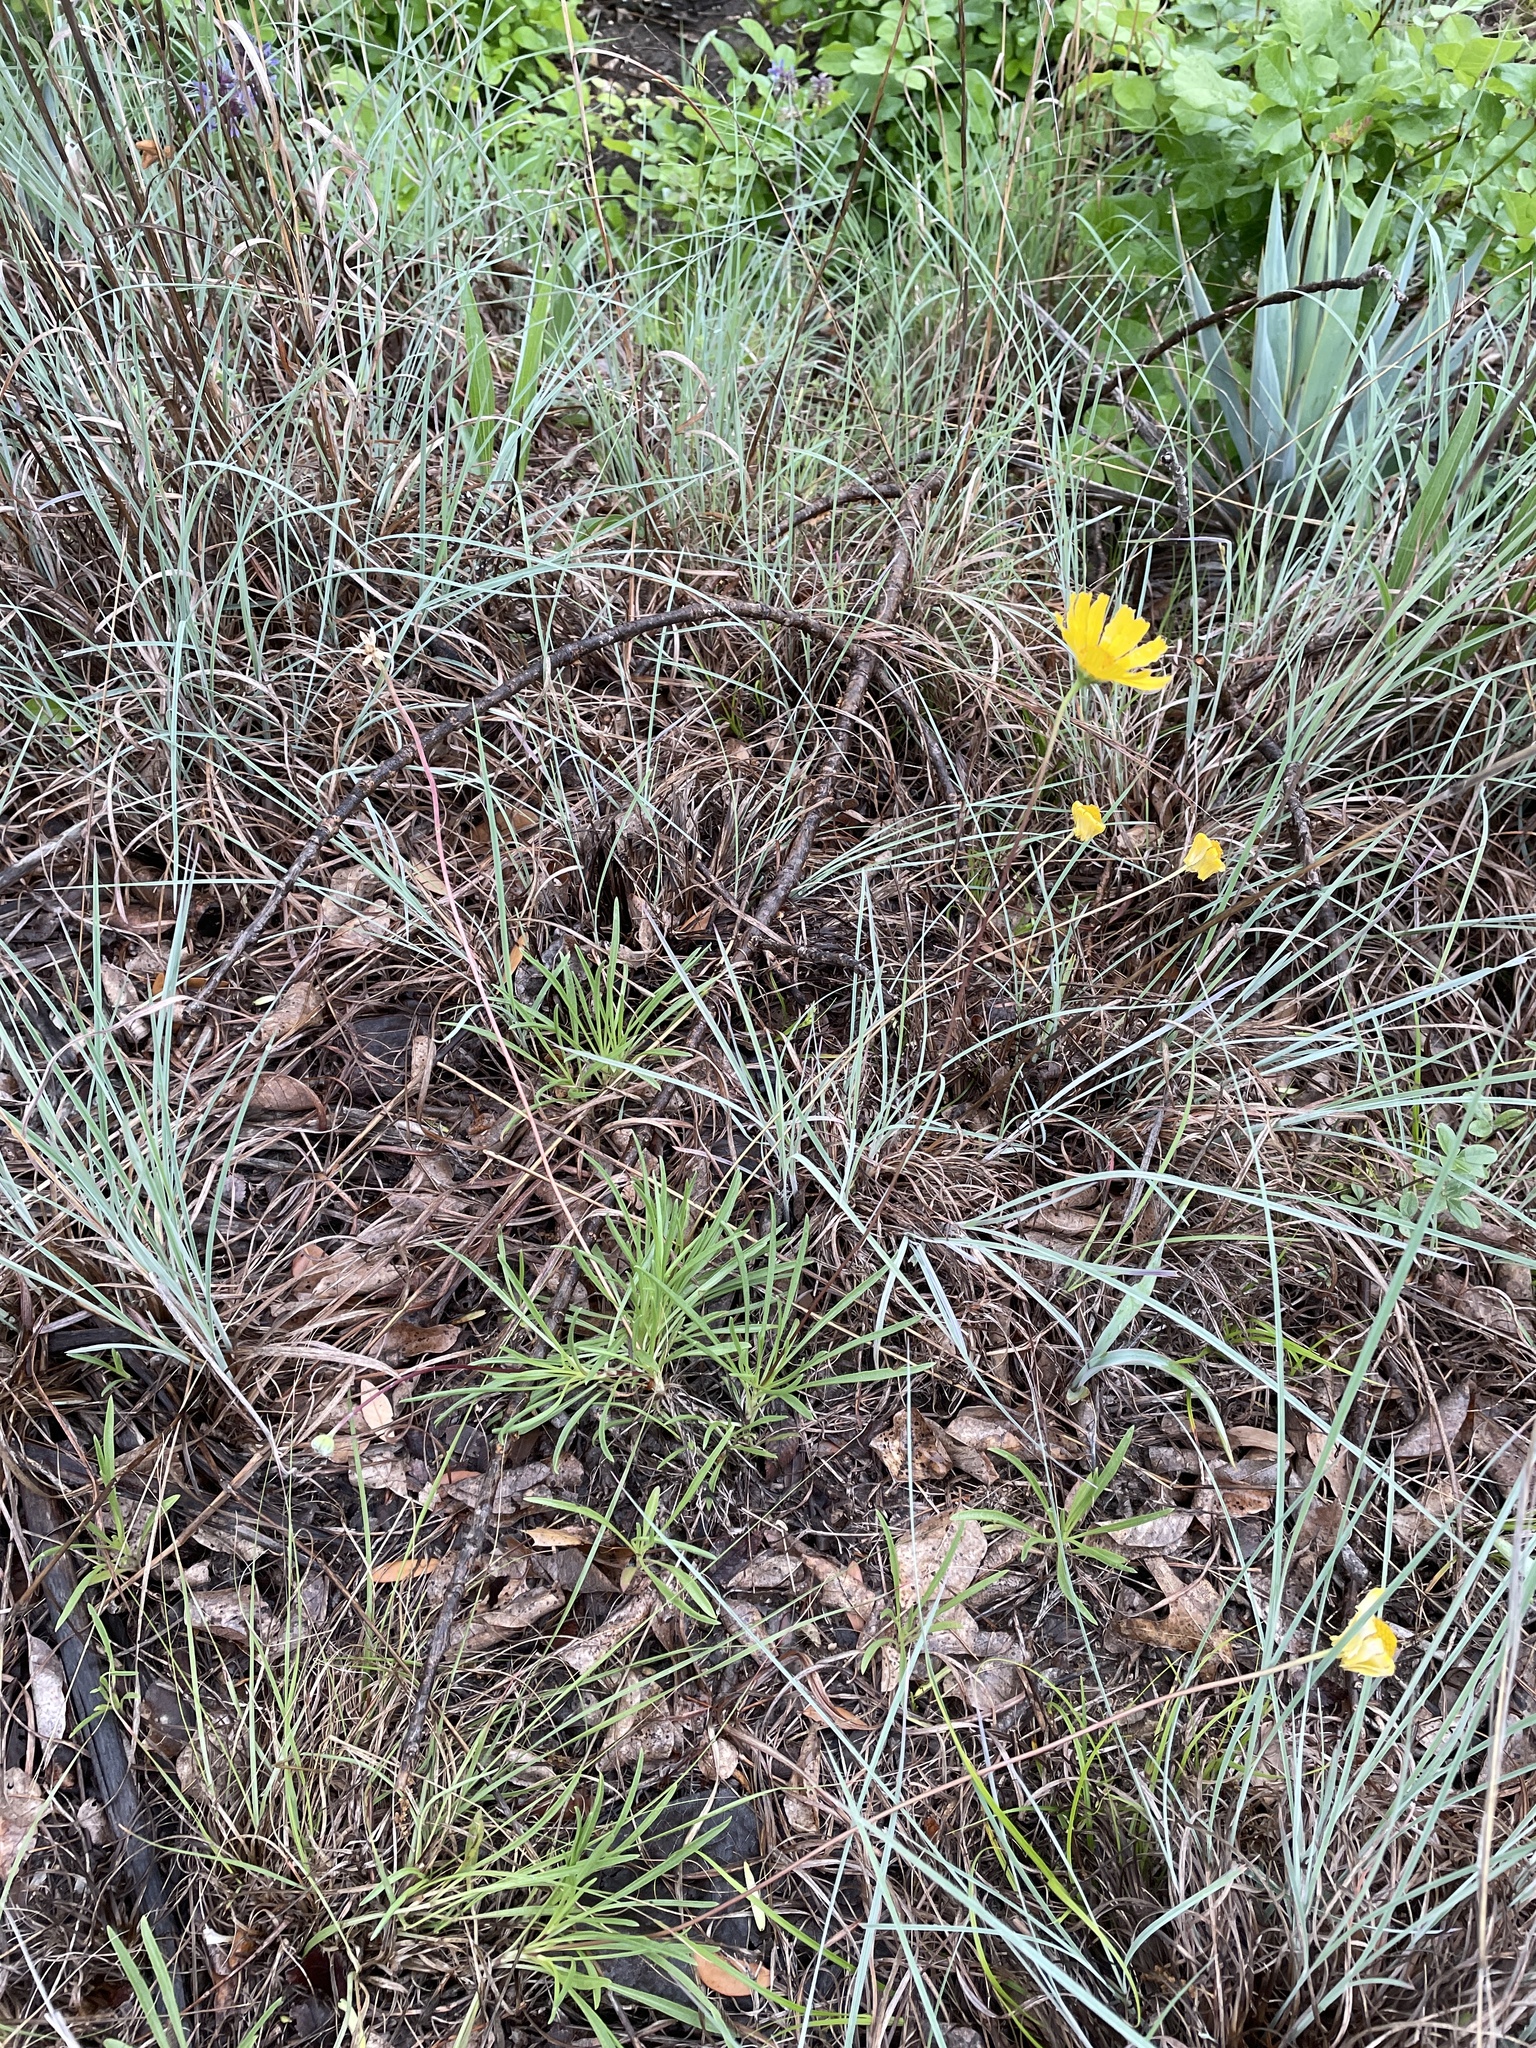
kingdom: Plantae
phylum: Tracheophyta
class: Magnoliopsida
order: Asterales
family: Asteraceae
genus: Tetraneuris
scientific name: Tetraneuris scaposa
